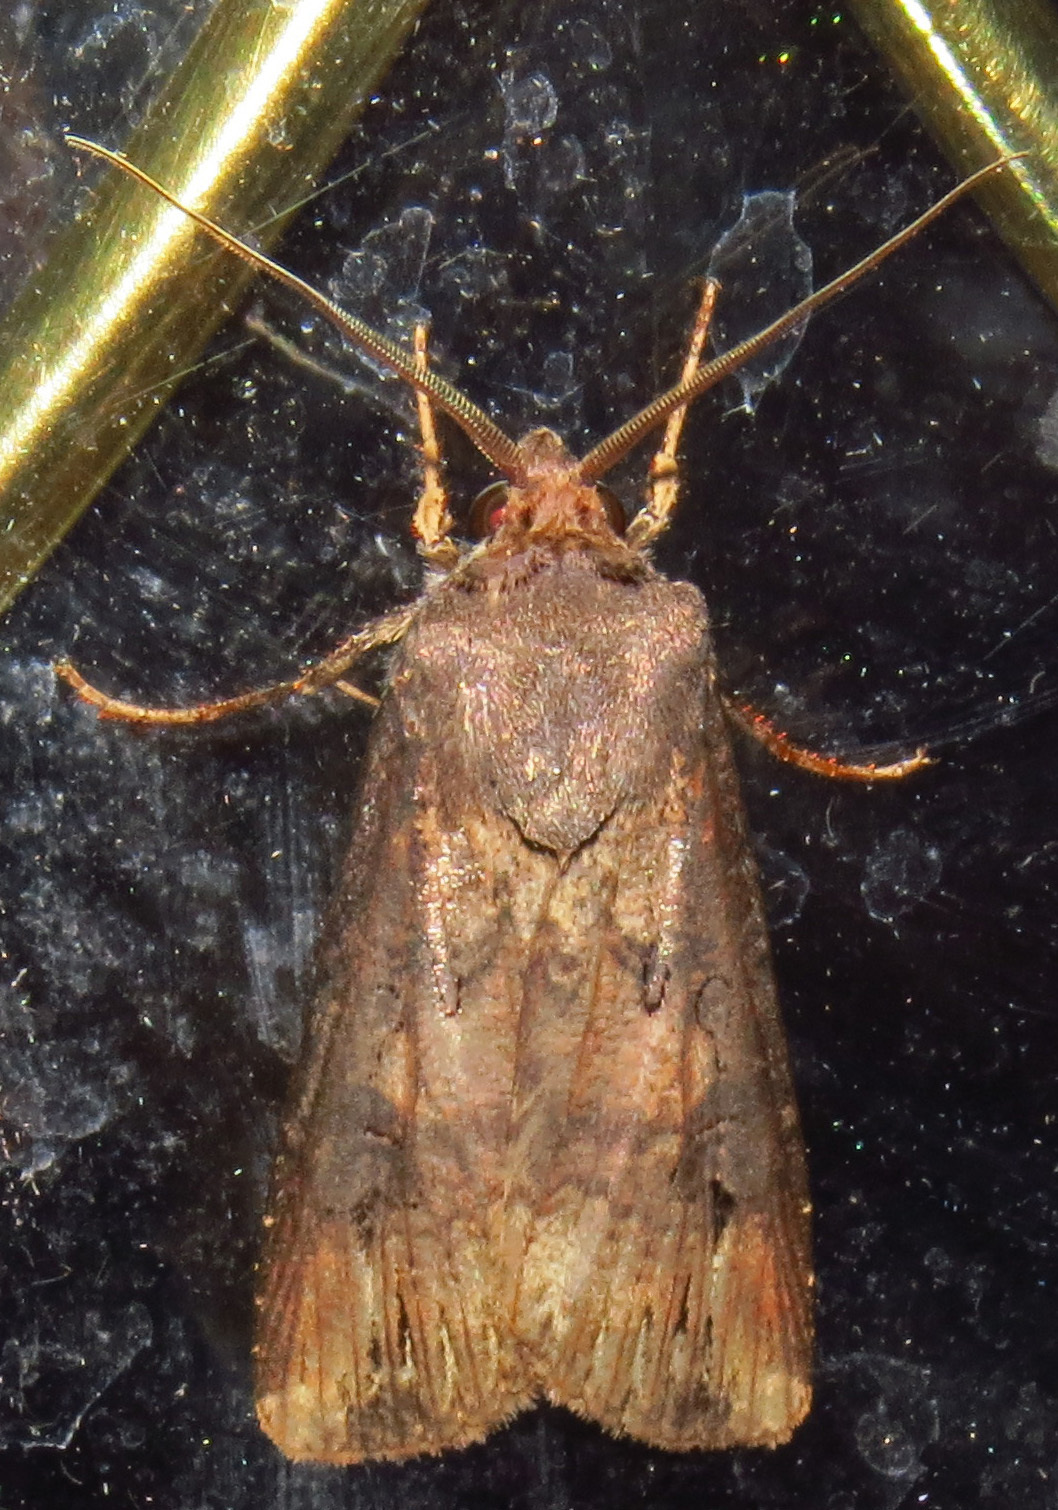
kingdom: Animalia
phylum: Arthropoda
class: Insecta
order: Lepidoptera
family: Noctuidae
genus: Agrotis
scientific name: Agrotis ipsilon
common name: Dark sword-grass
